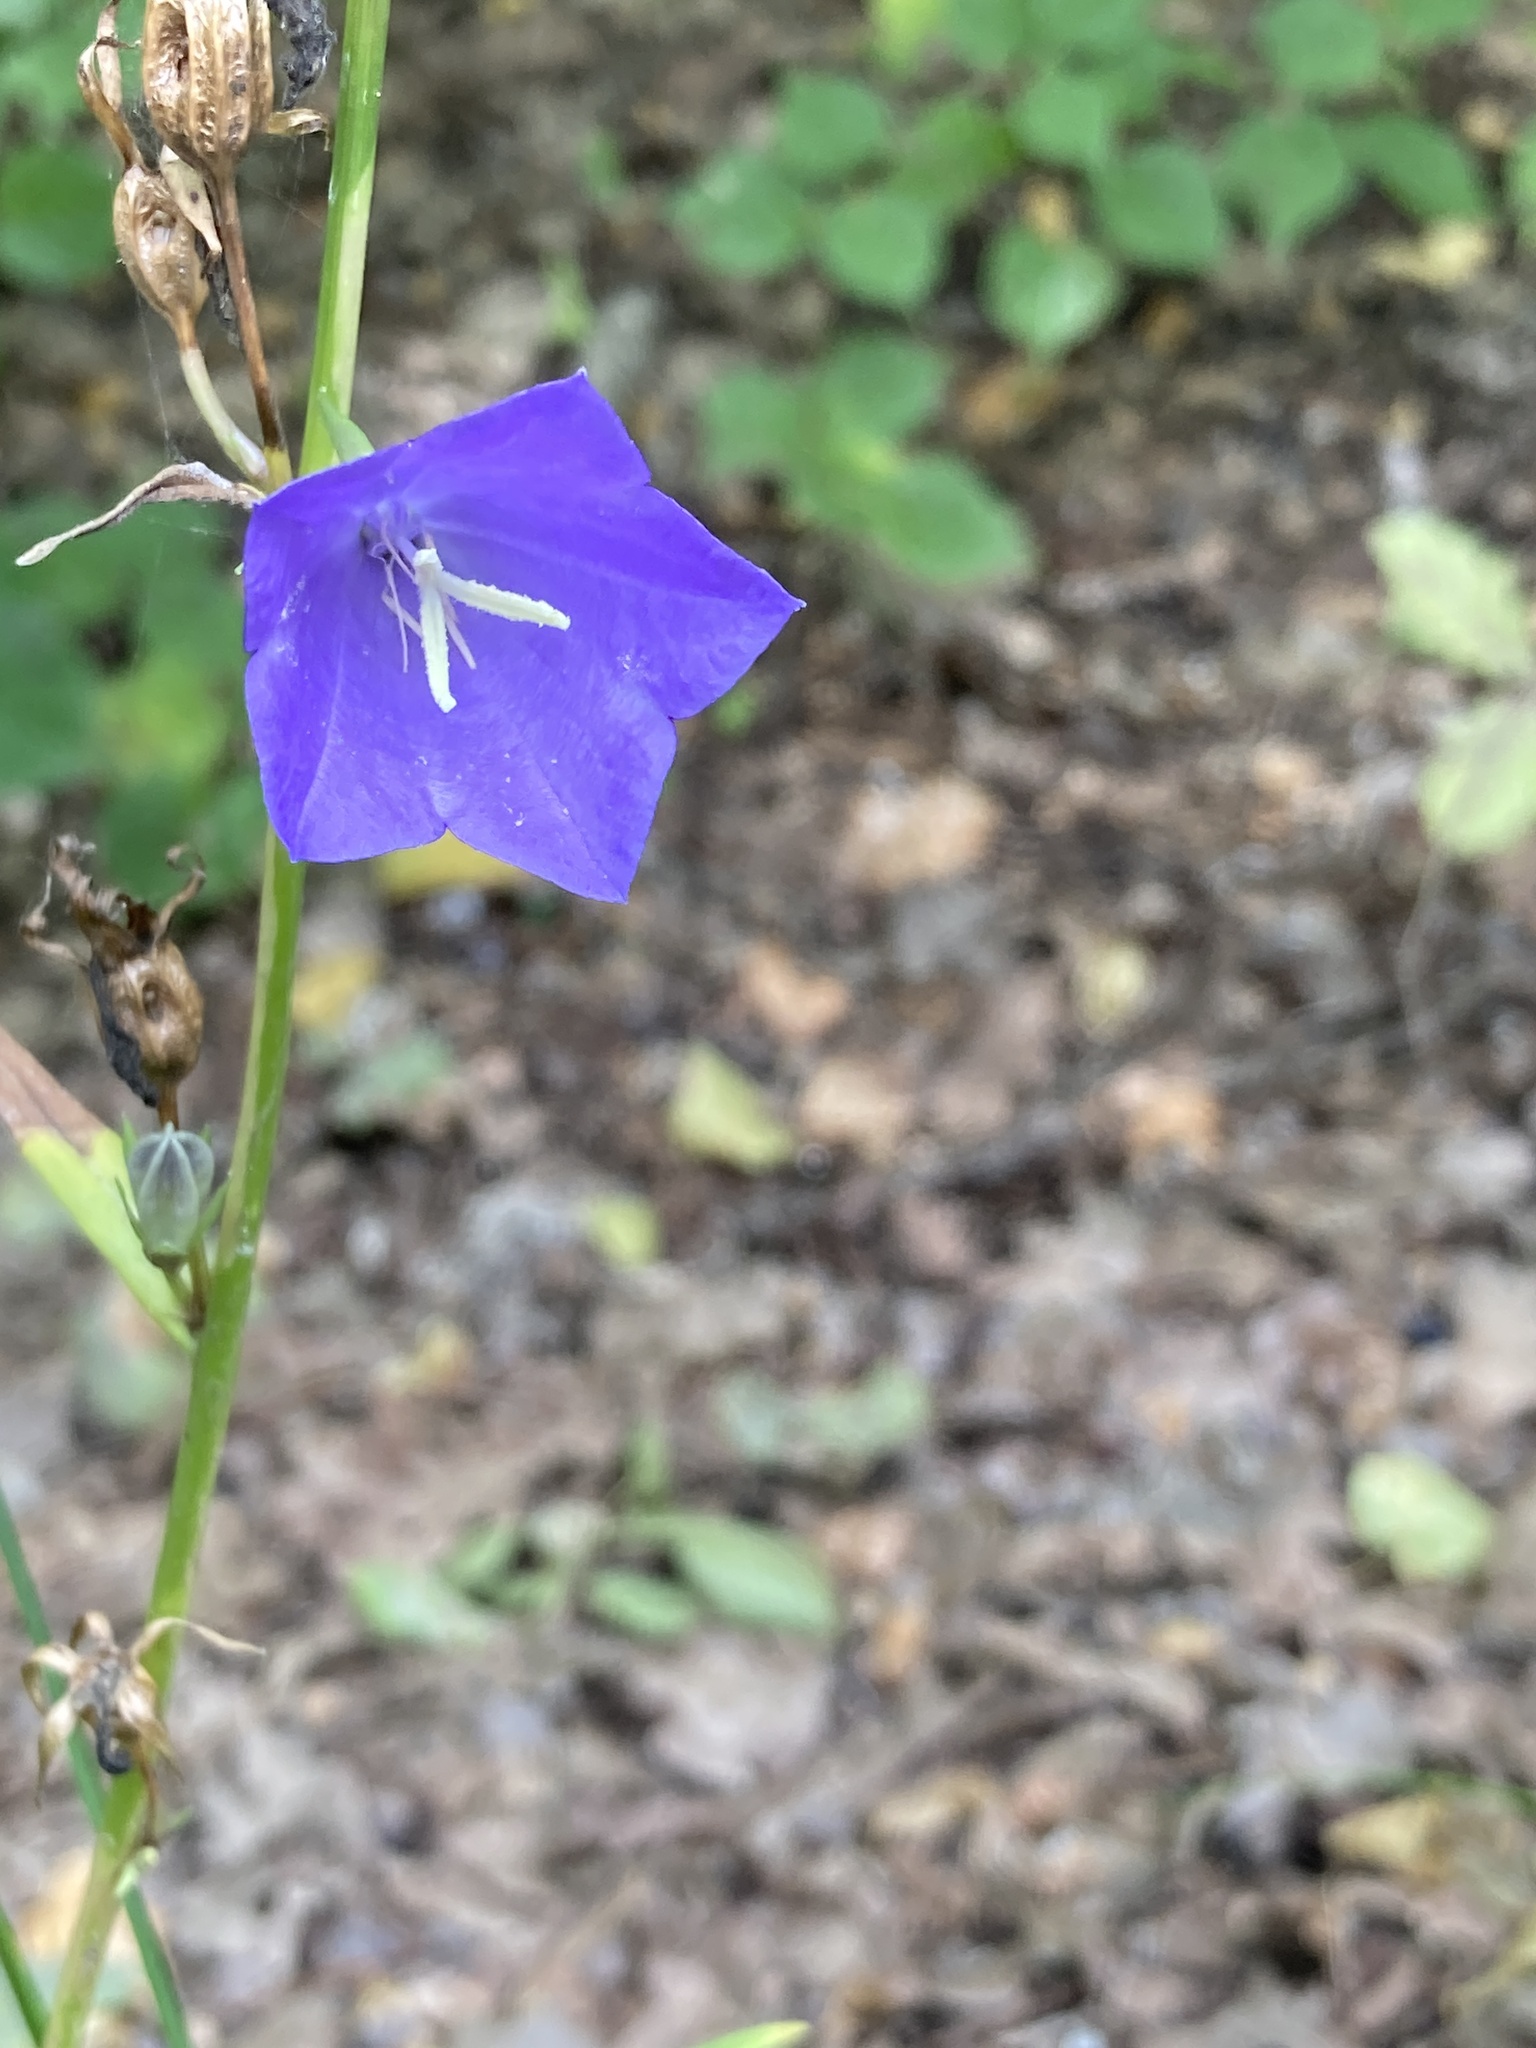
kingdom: Plantae
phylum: Tracheophyta
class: Magnoliopsida
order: Asterales
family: Campanulaceae
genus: Campanula
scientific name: Campanula persicifolia
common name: Peach-leaved bellflower
